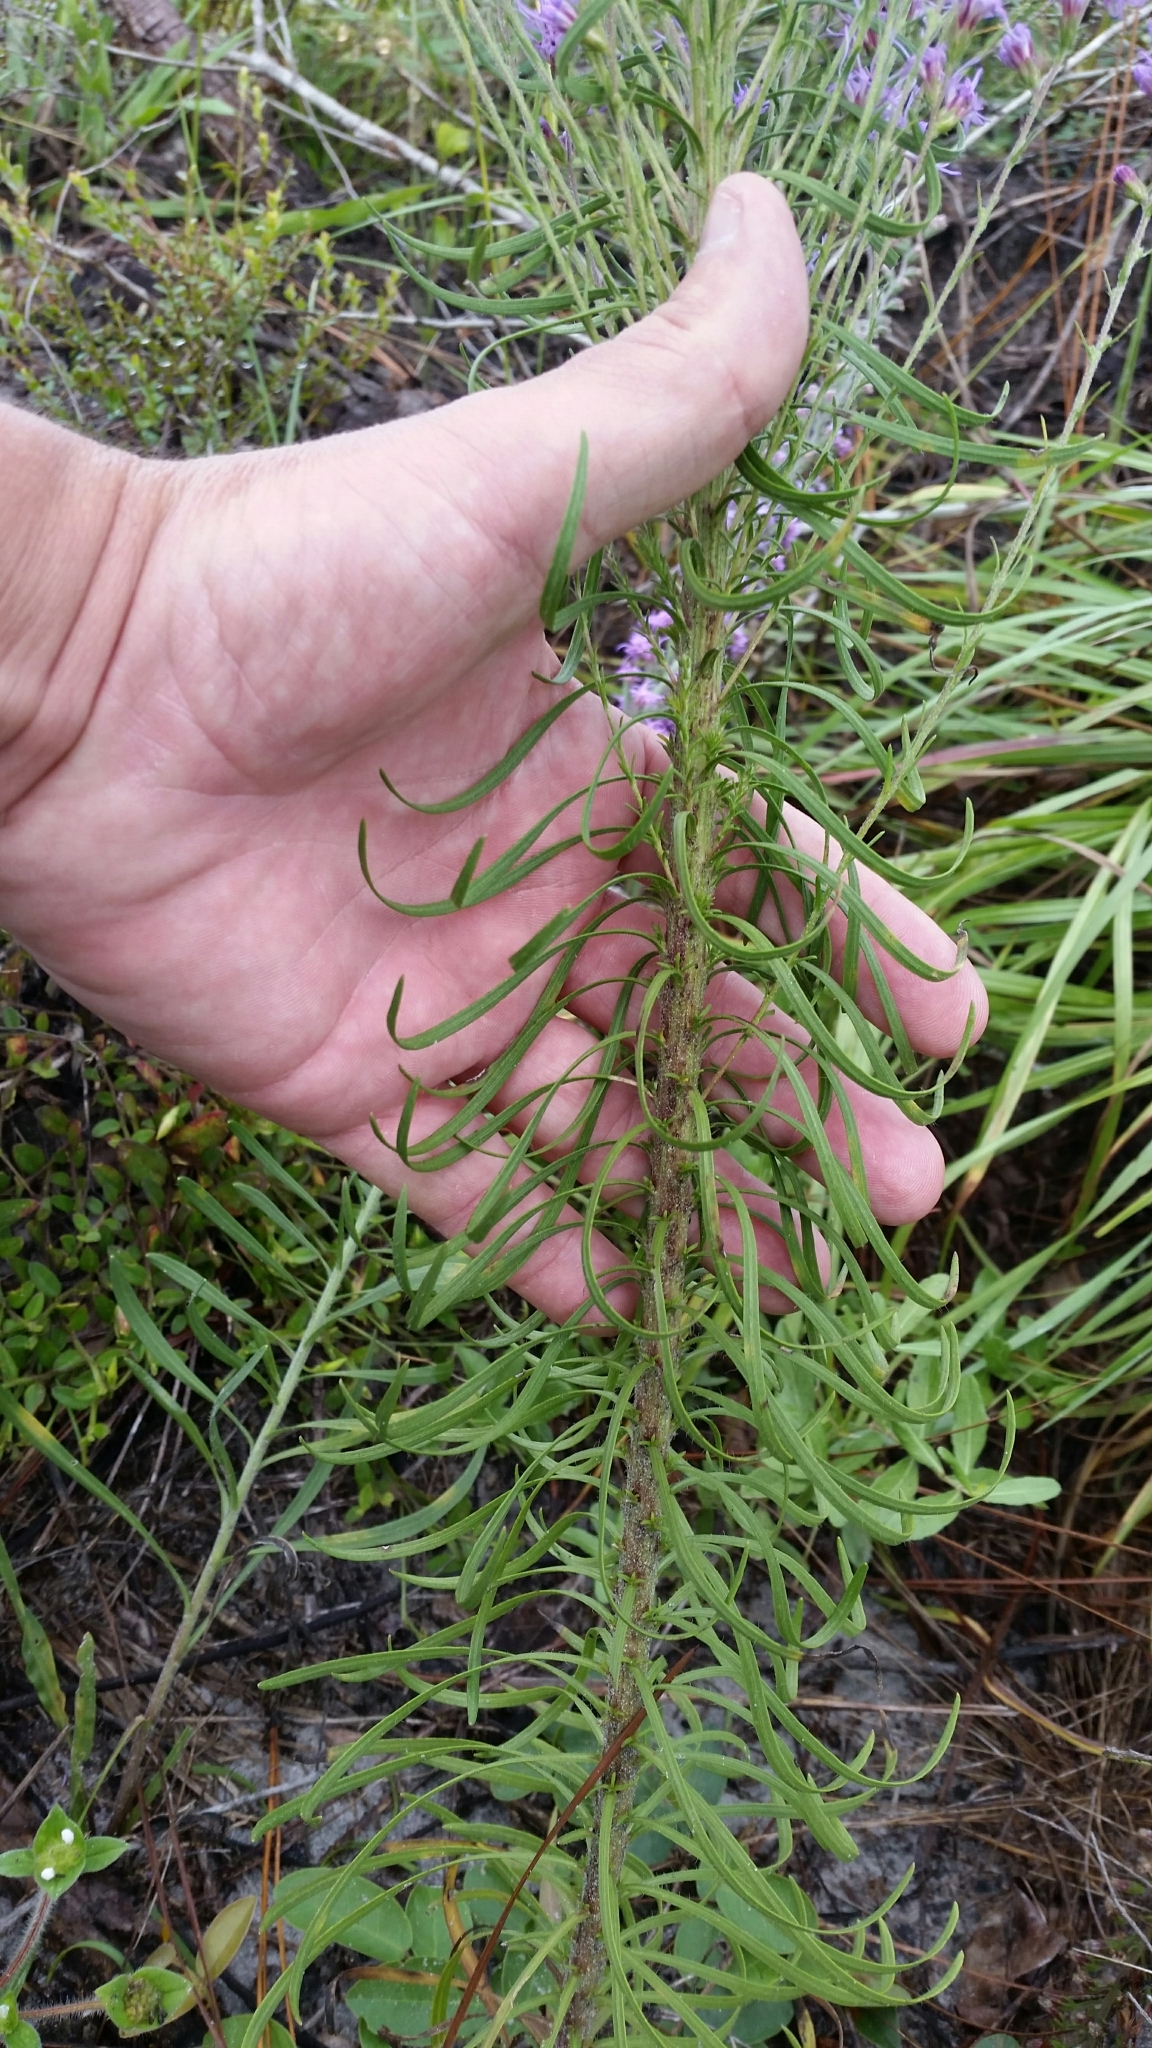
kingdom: Plantae
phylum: Tracheophyta
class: Magnoliopsida
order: Asterales
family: Asteraceae
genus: Liatris
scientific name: Liatris gracilis
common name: Slender gayfeather
